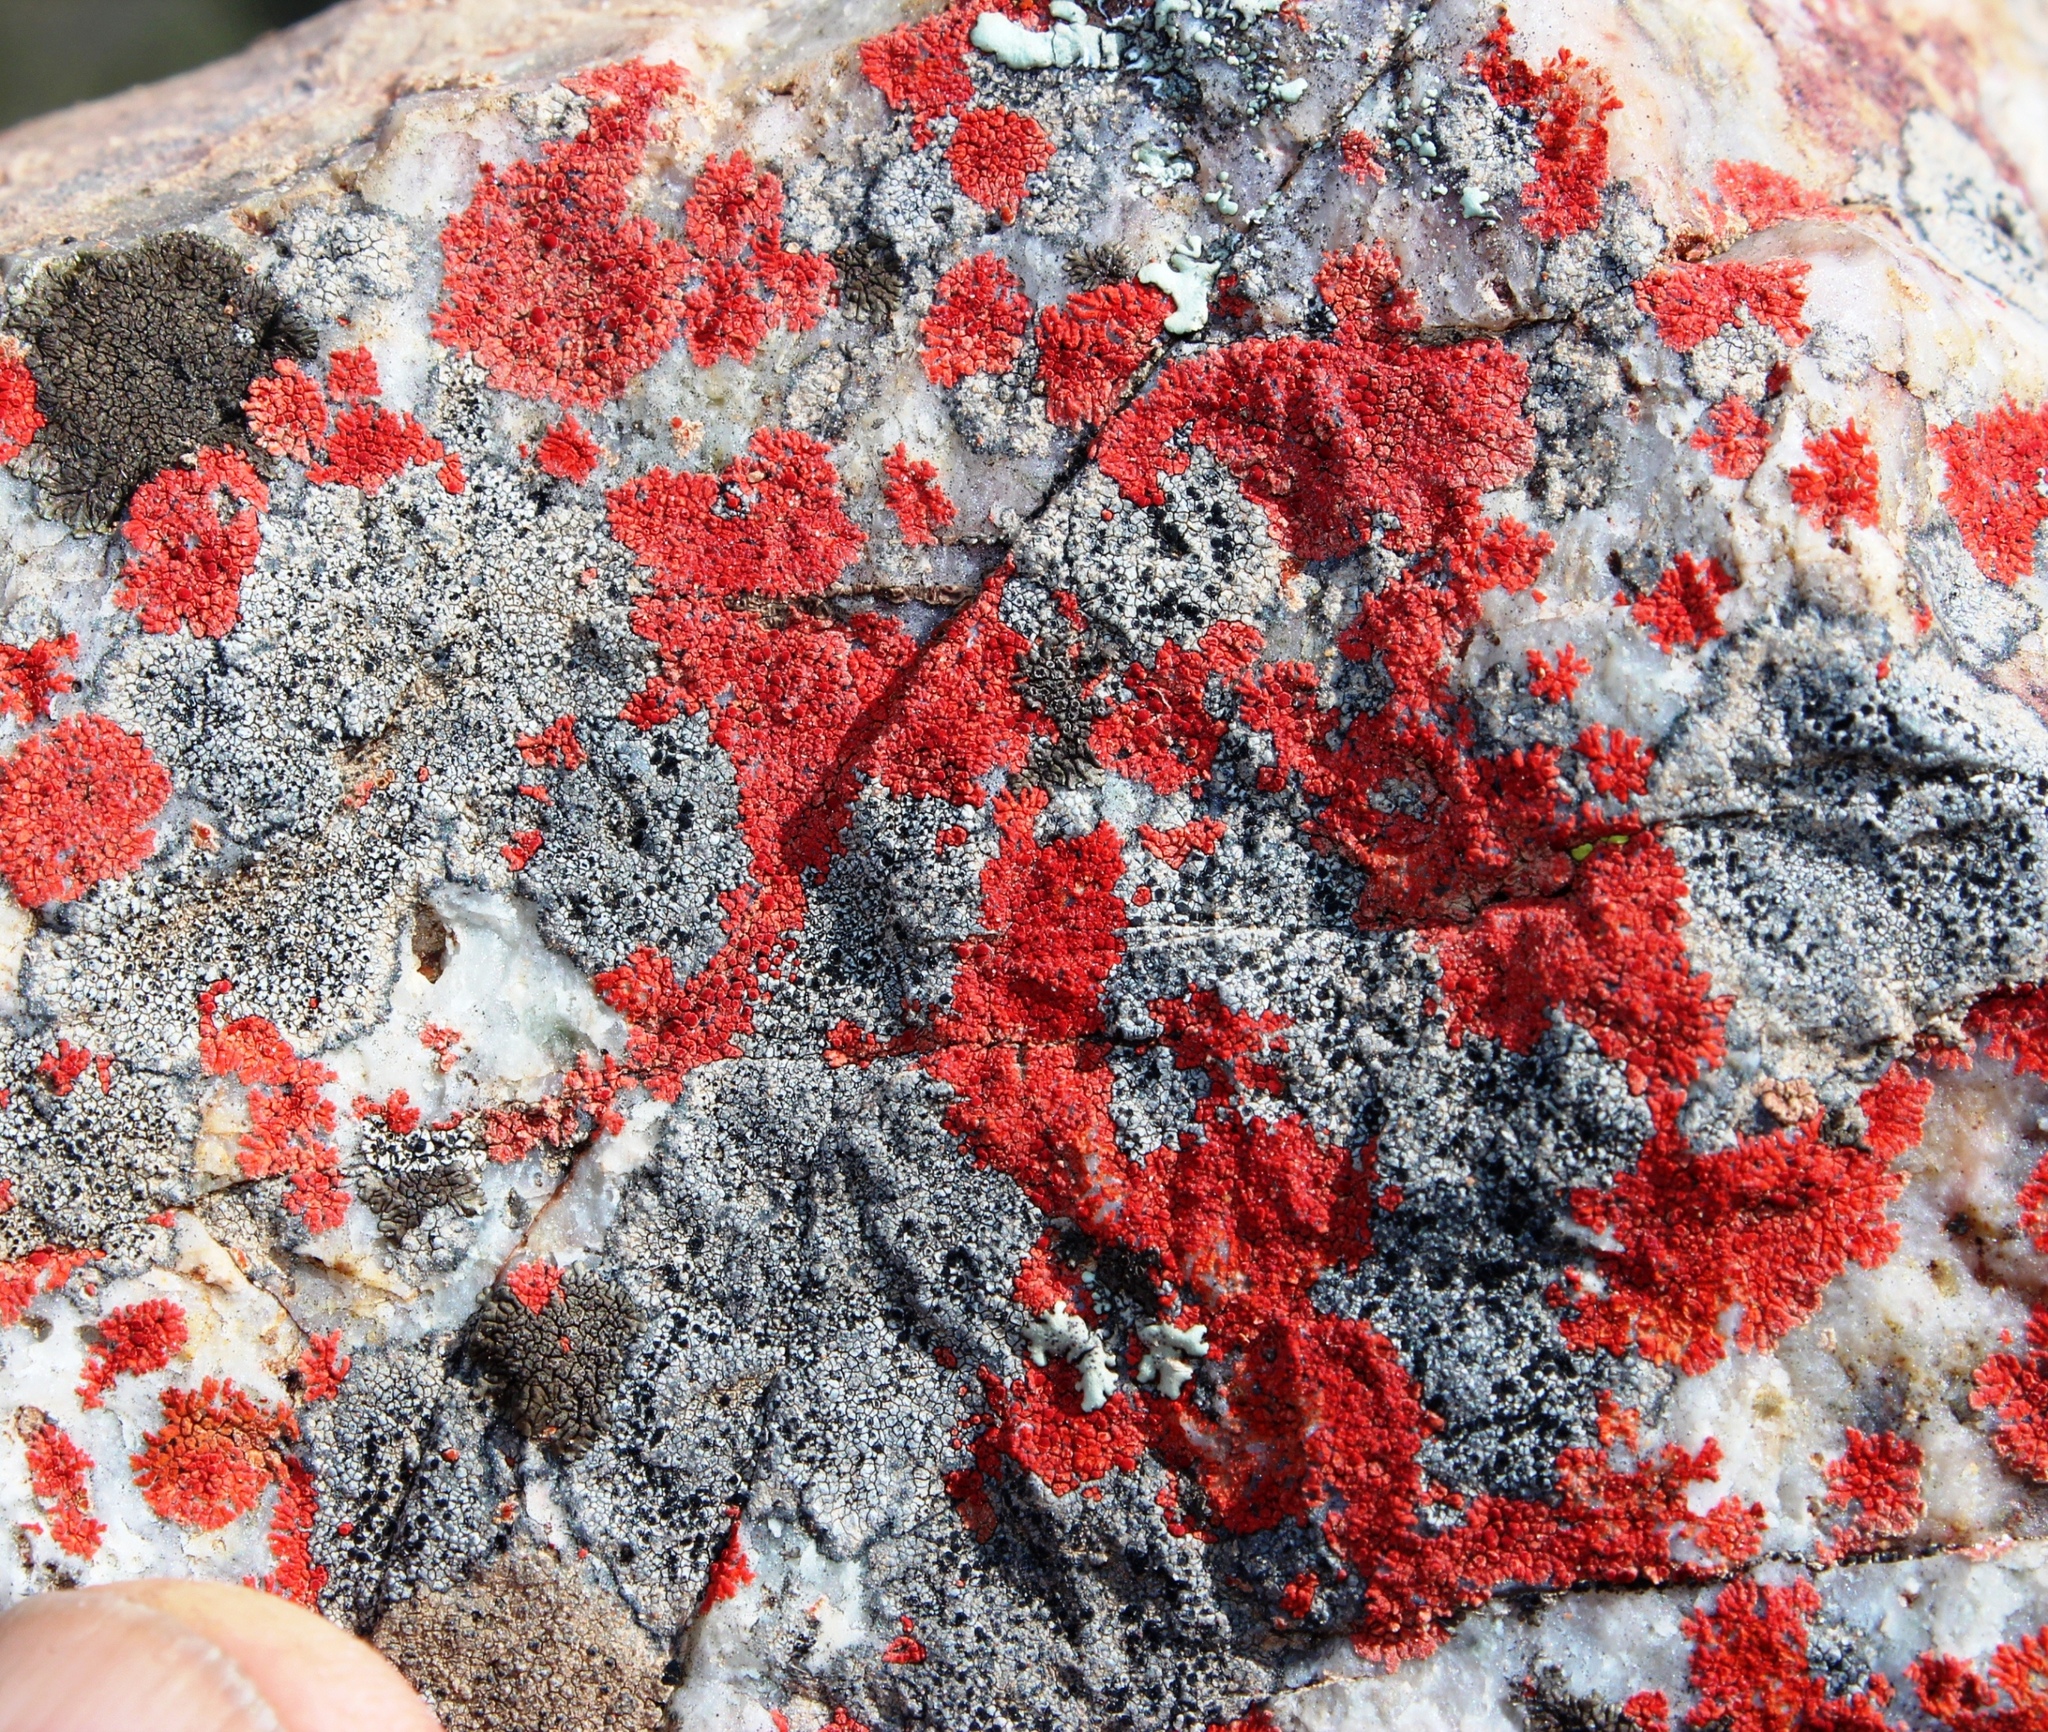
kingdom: Fungi
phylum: Ascomycota
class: Lecanoromycetes
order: Teloschistales
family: Teloschistaceae
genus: Caloplaca
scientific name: Caloplaca haematodes
